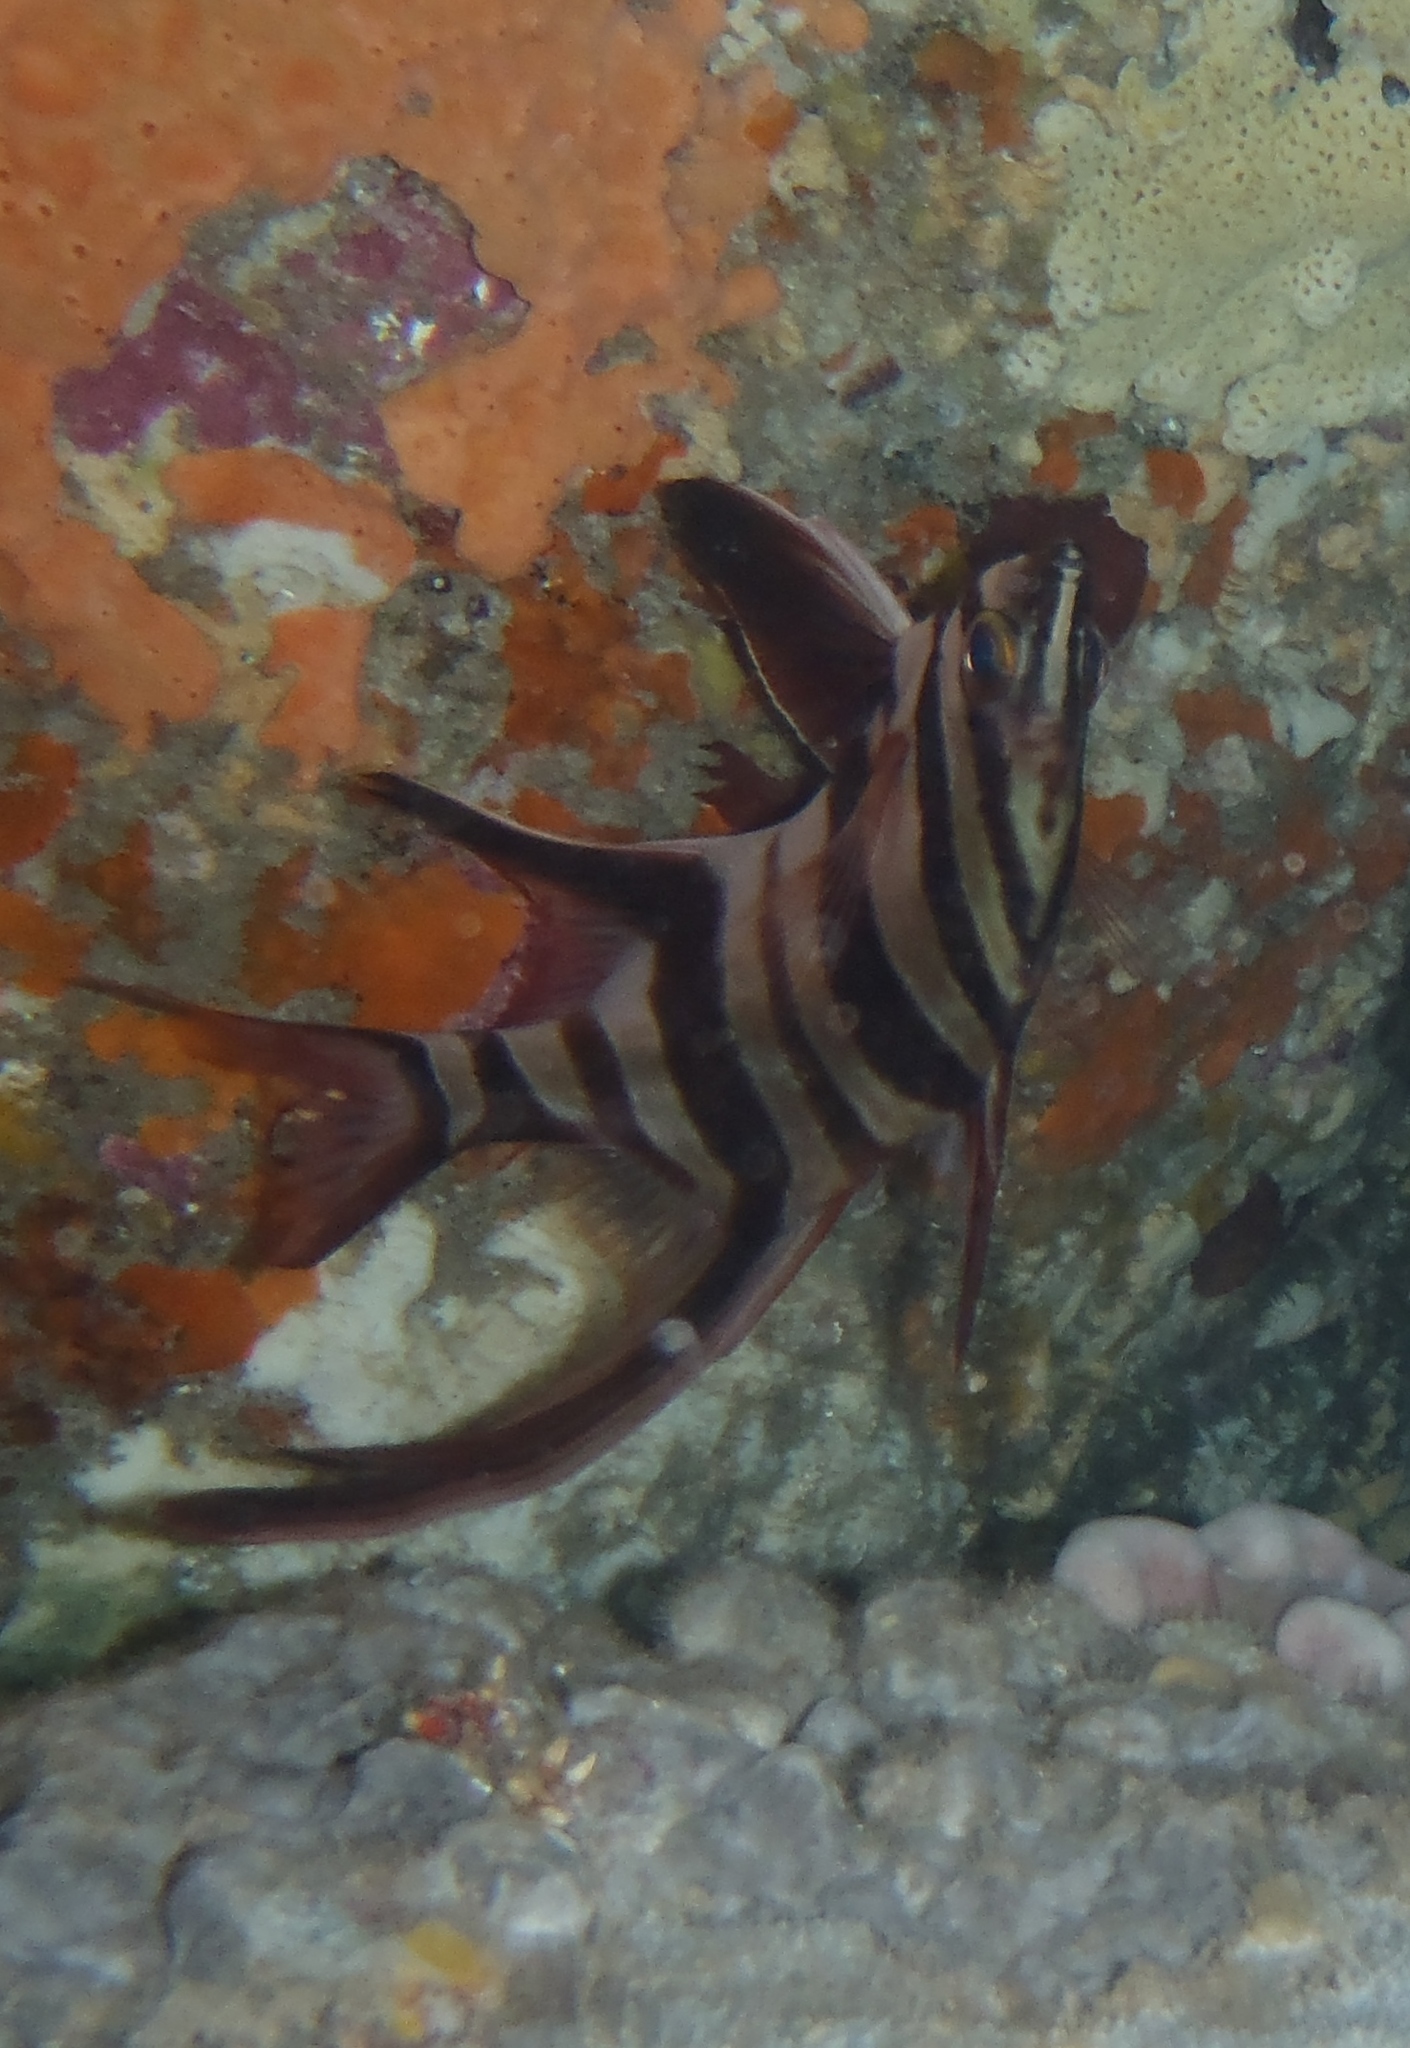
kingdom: Animalia
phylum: Chordata
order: Perciformes
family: Enoplosidae
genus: Enoplosus
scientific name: Enoplosus armatus
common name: Old wife
